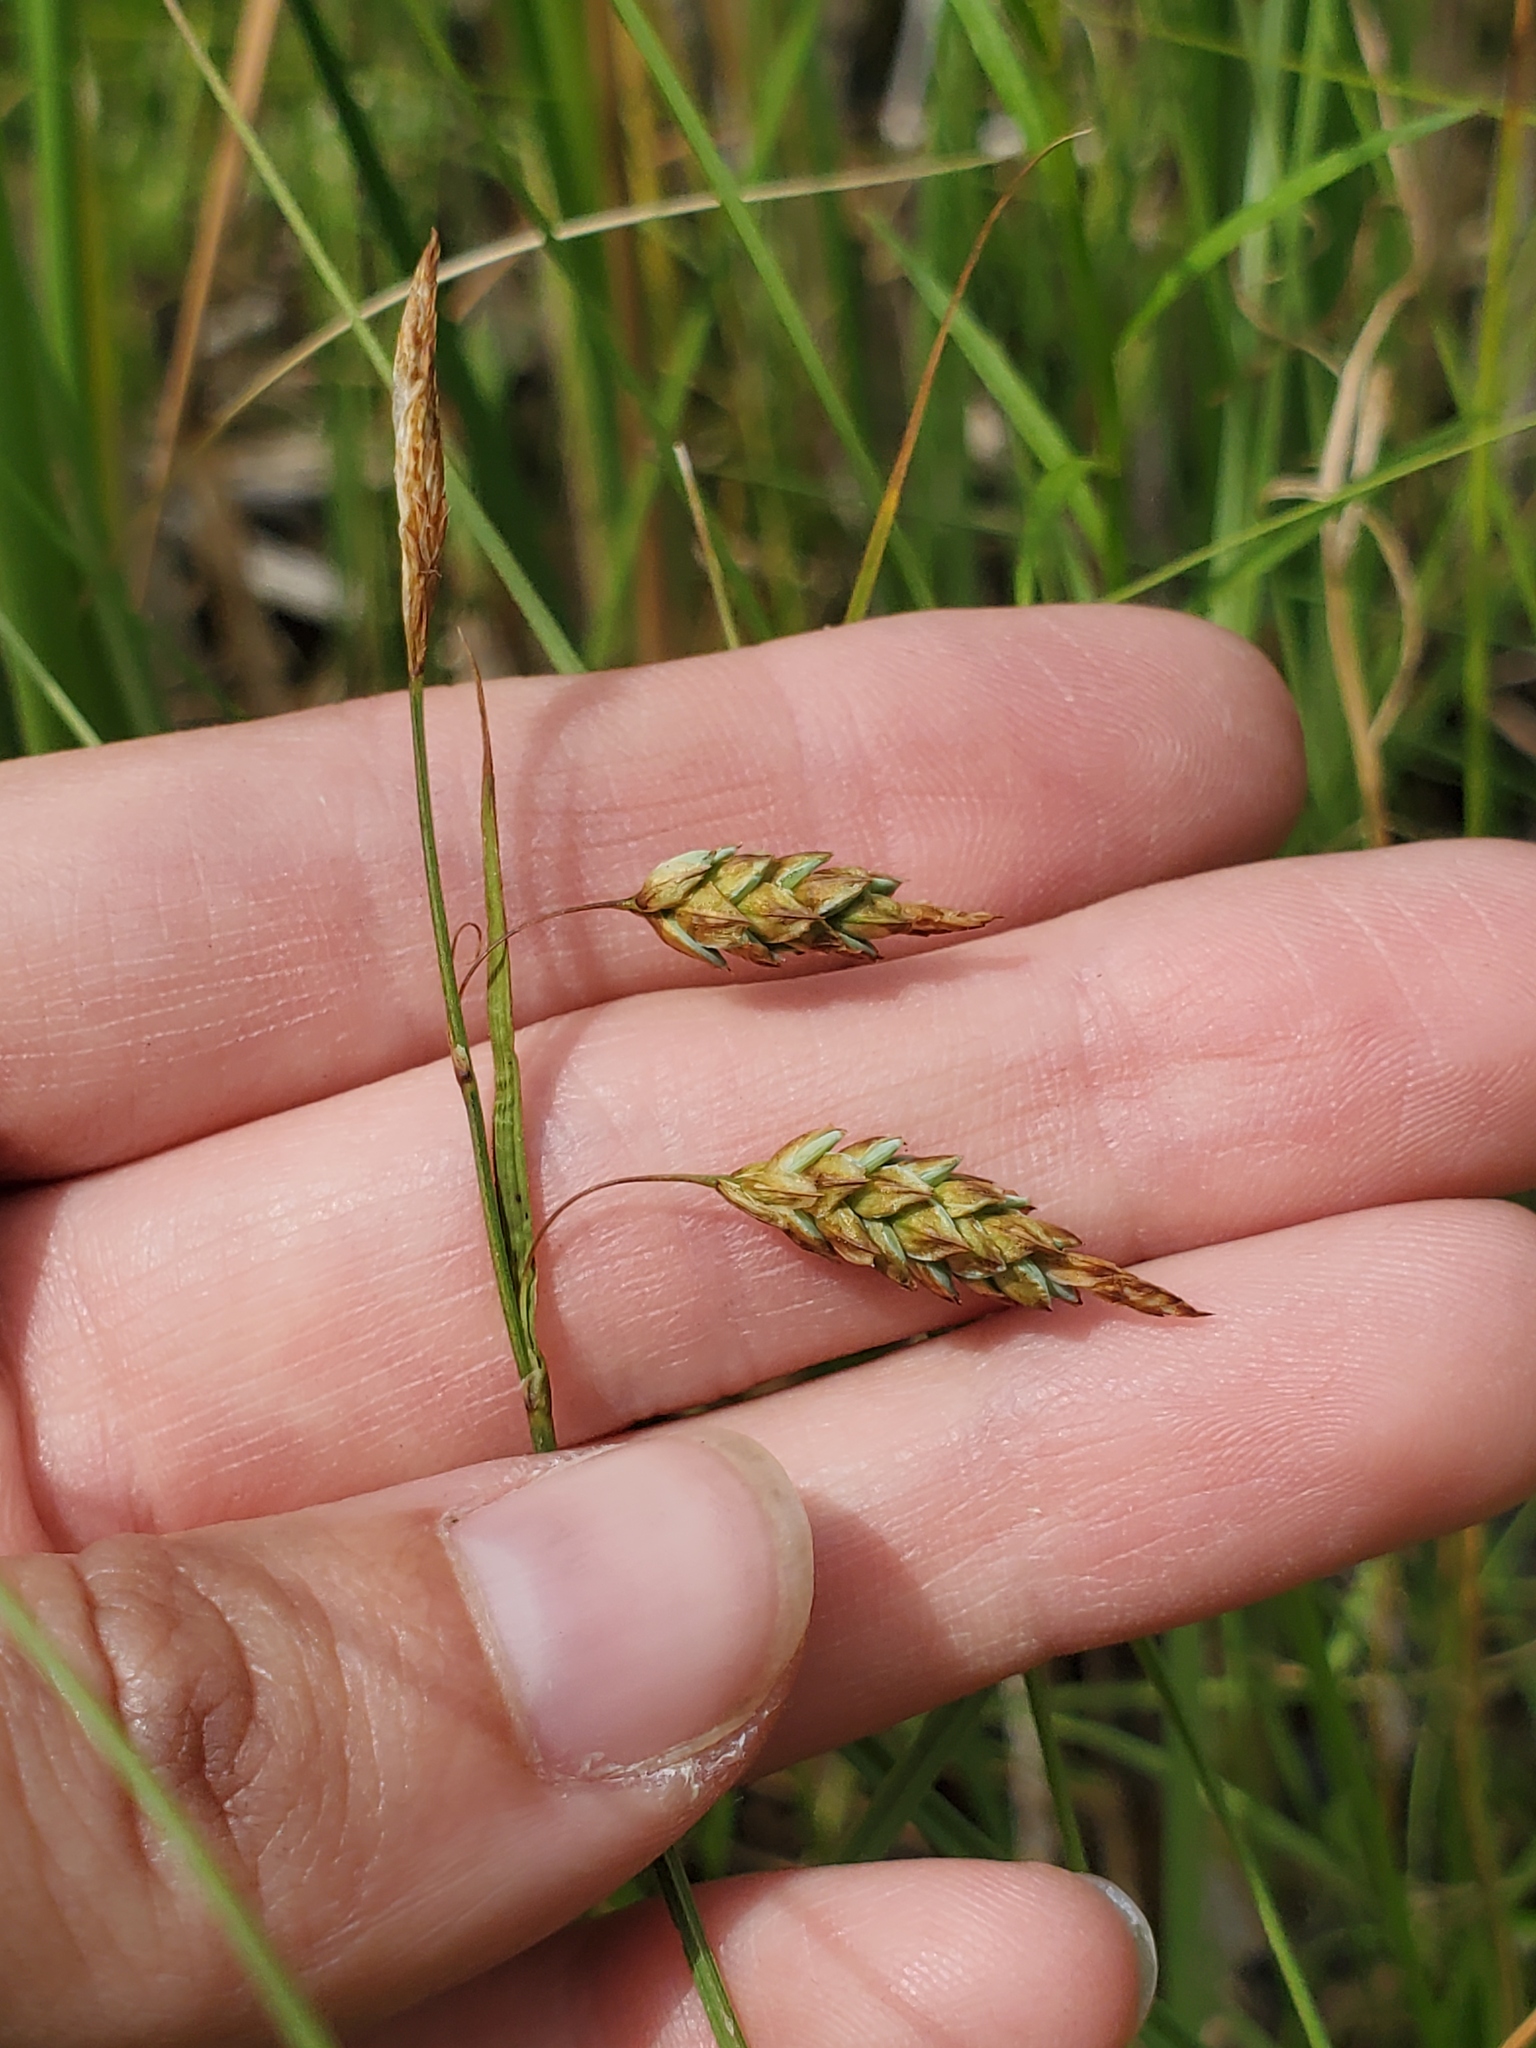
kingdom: Plantae
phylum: Tracheophyta
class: Liliopsida
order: Poales
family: Cyperaceae
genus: Carex
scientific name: Carex limosa
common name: Bog sedge
